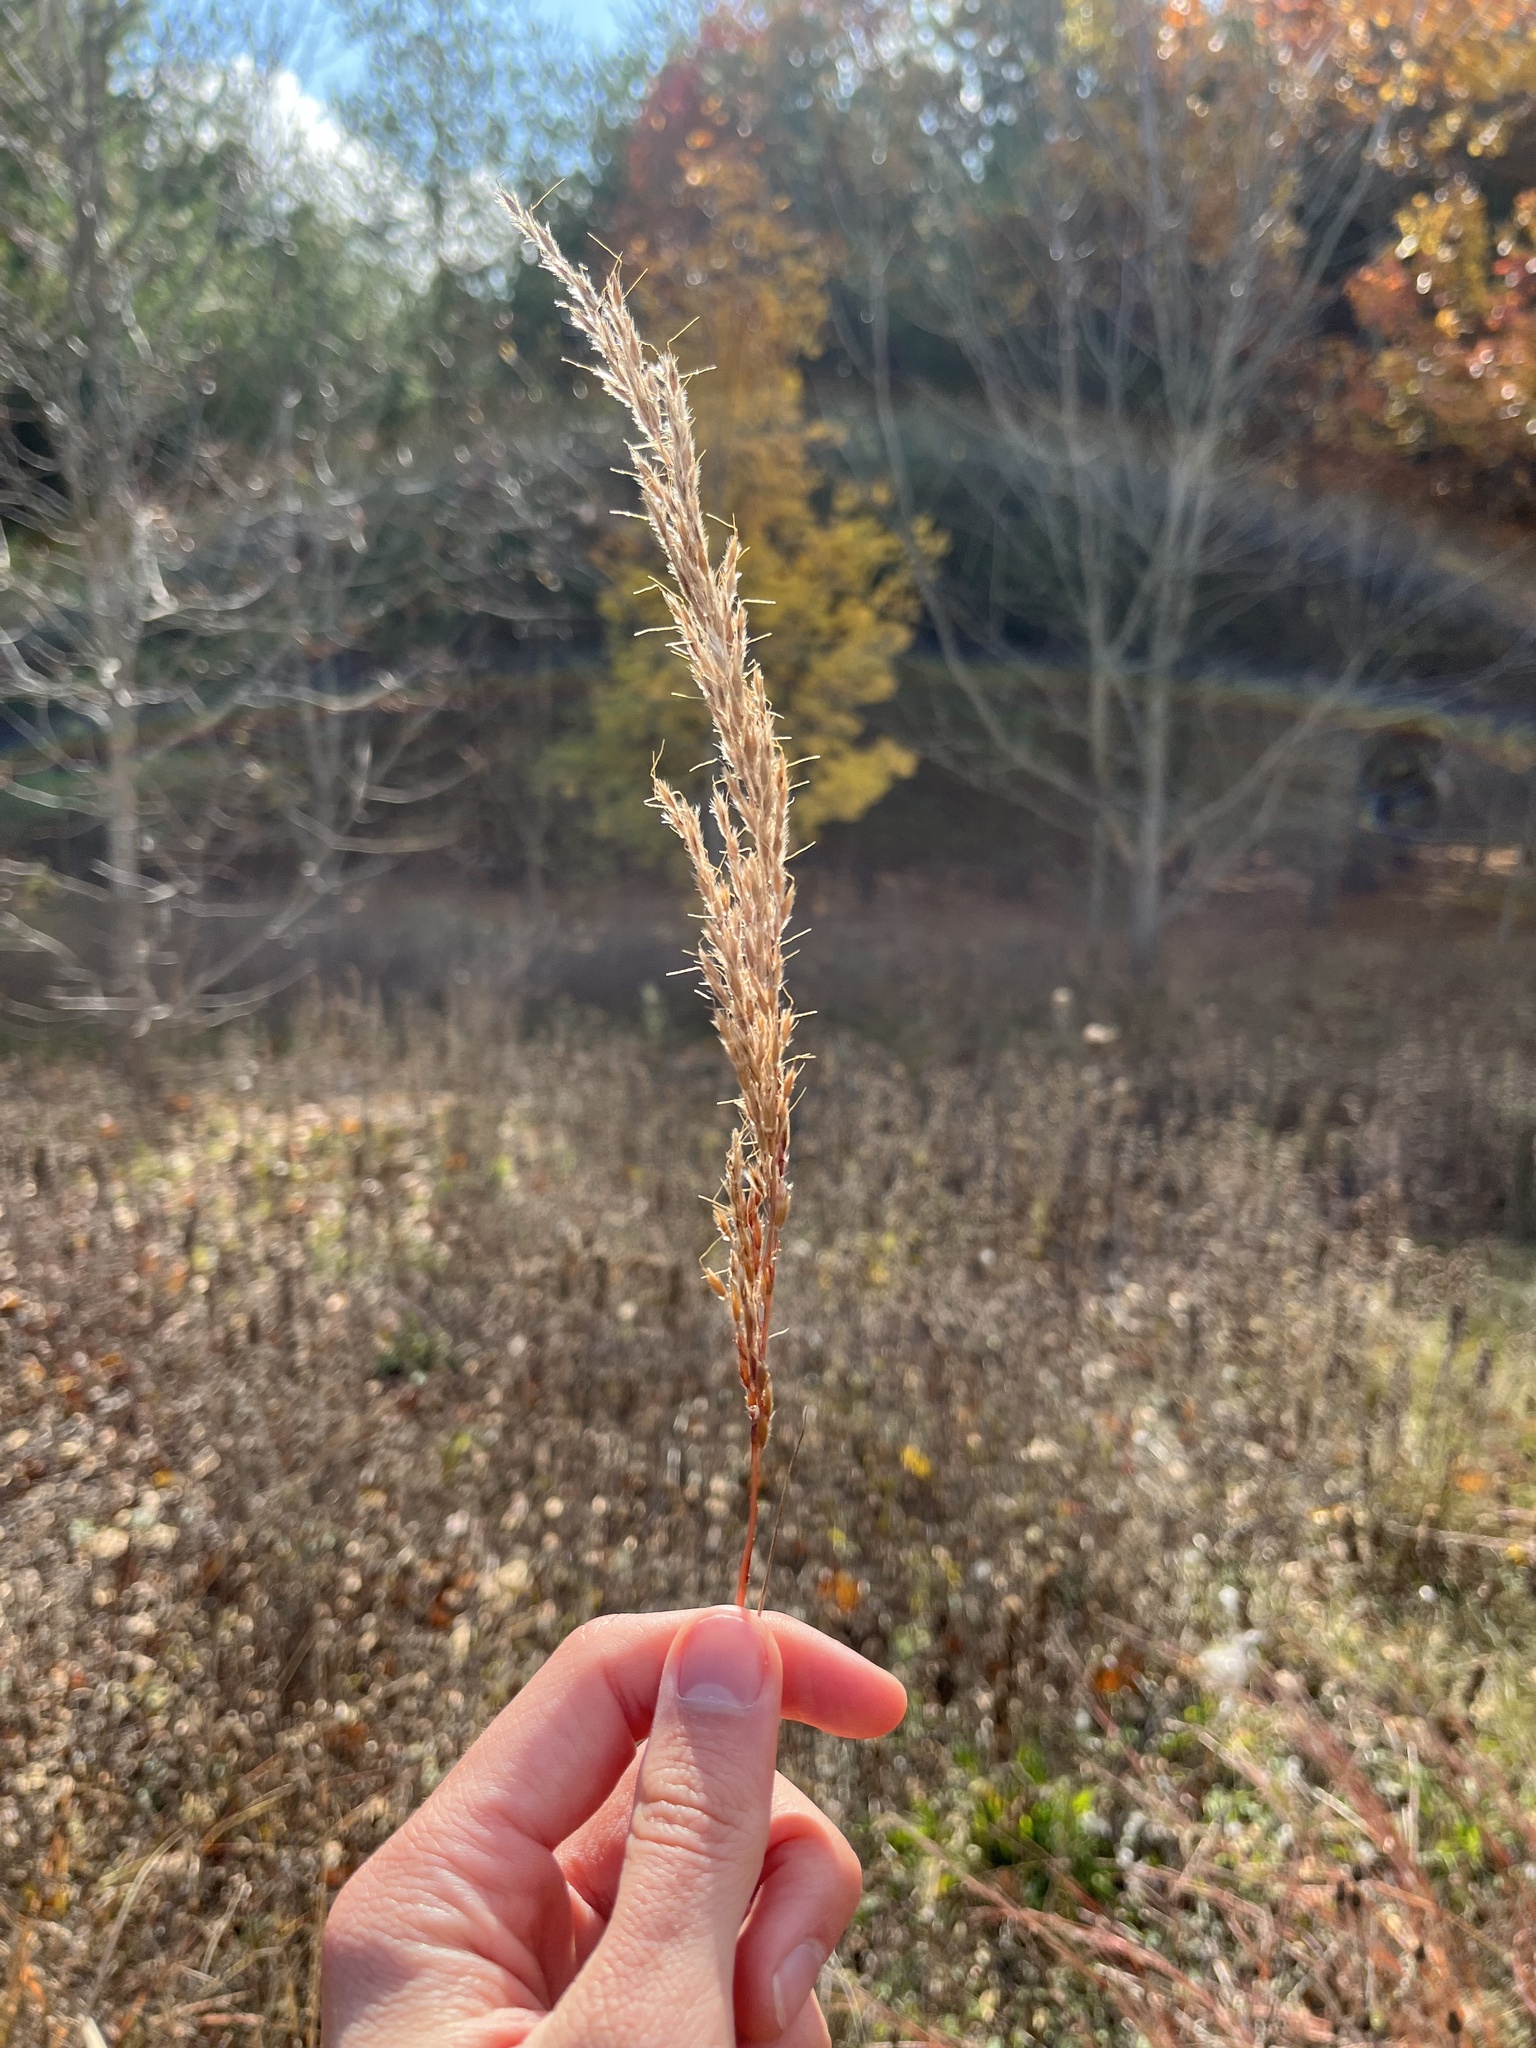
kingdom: Plantae
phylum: Tracheophyta
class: Liliopsida
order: Poales
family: Poaceae
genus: Sorghastrum
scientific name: Sorghastrum nutans
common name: Indian grass
